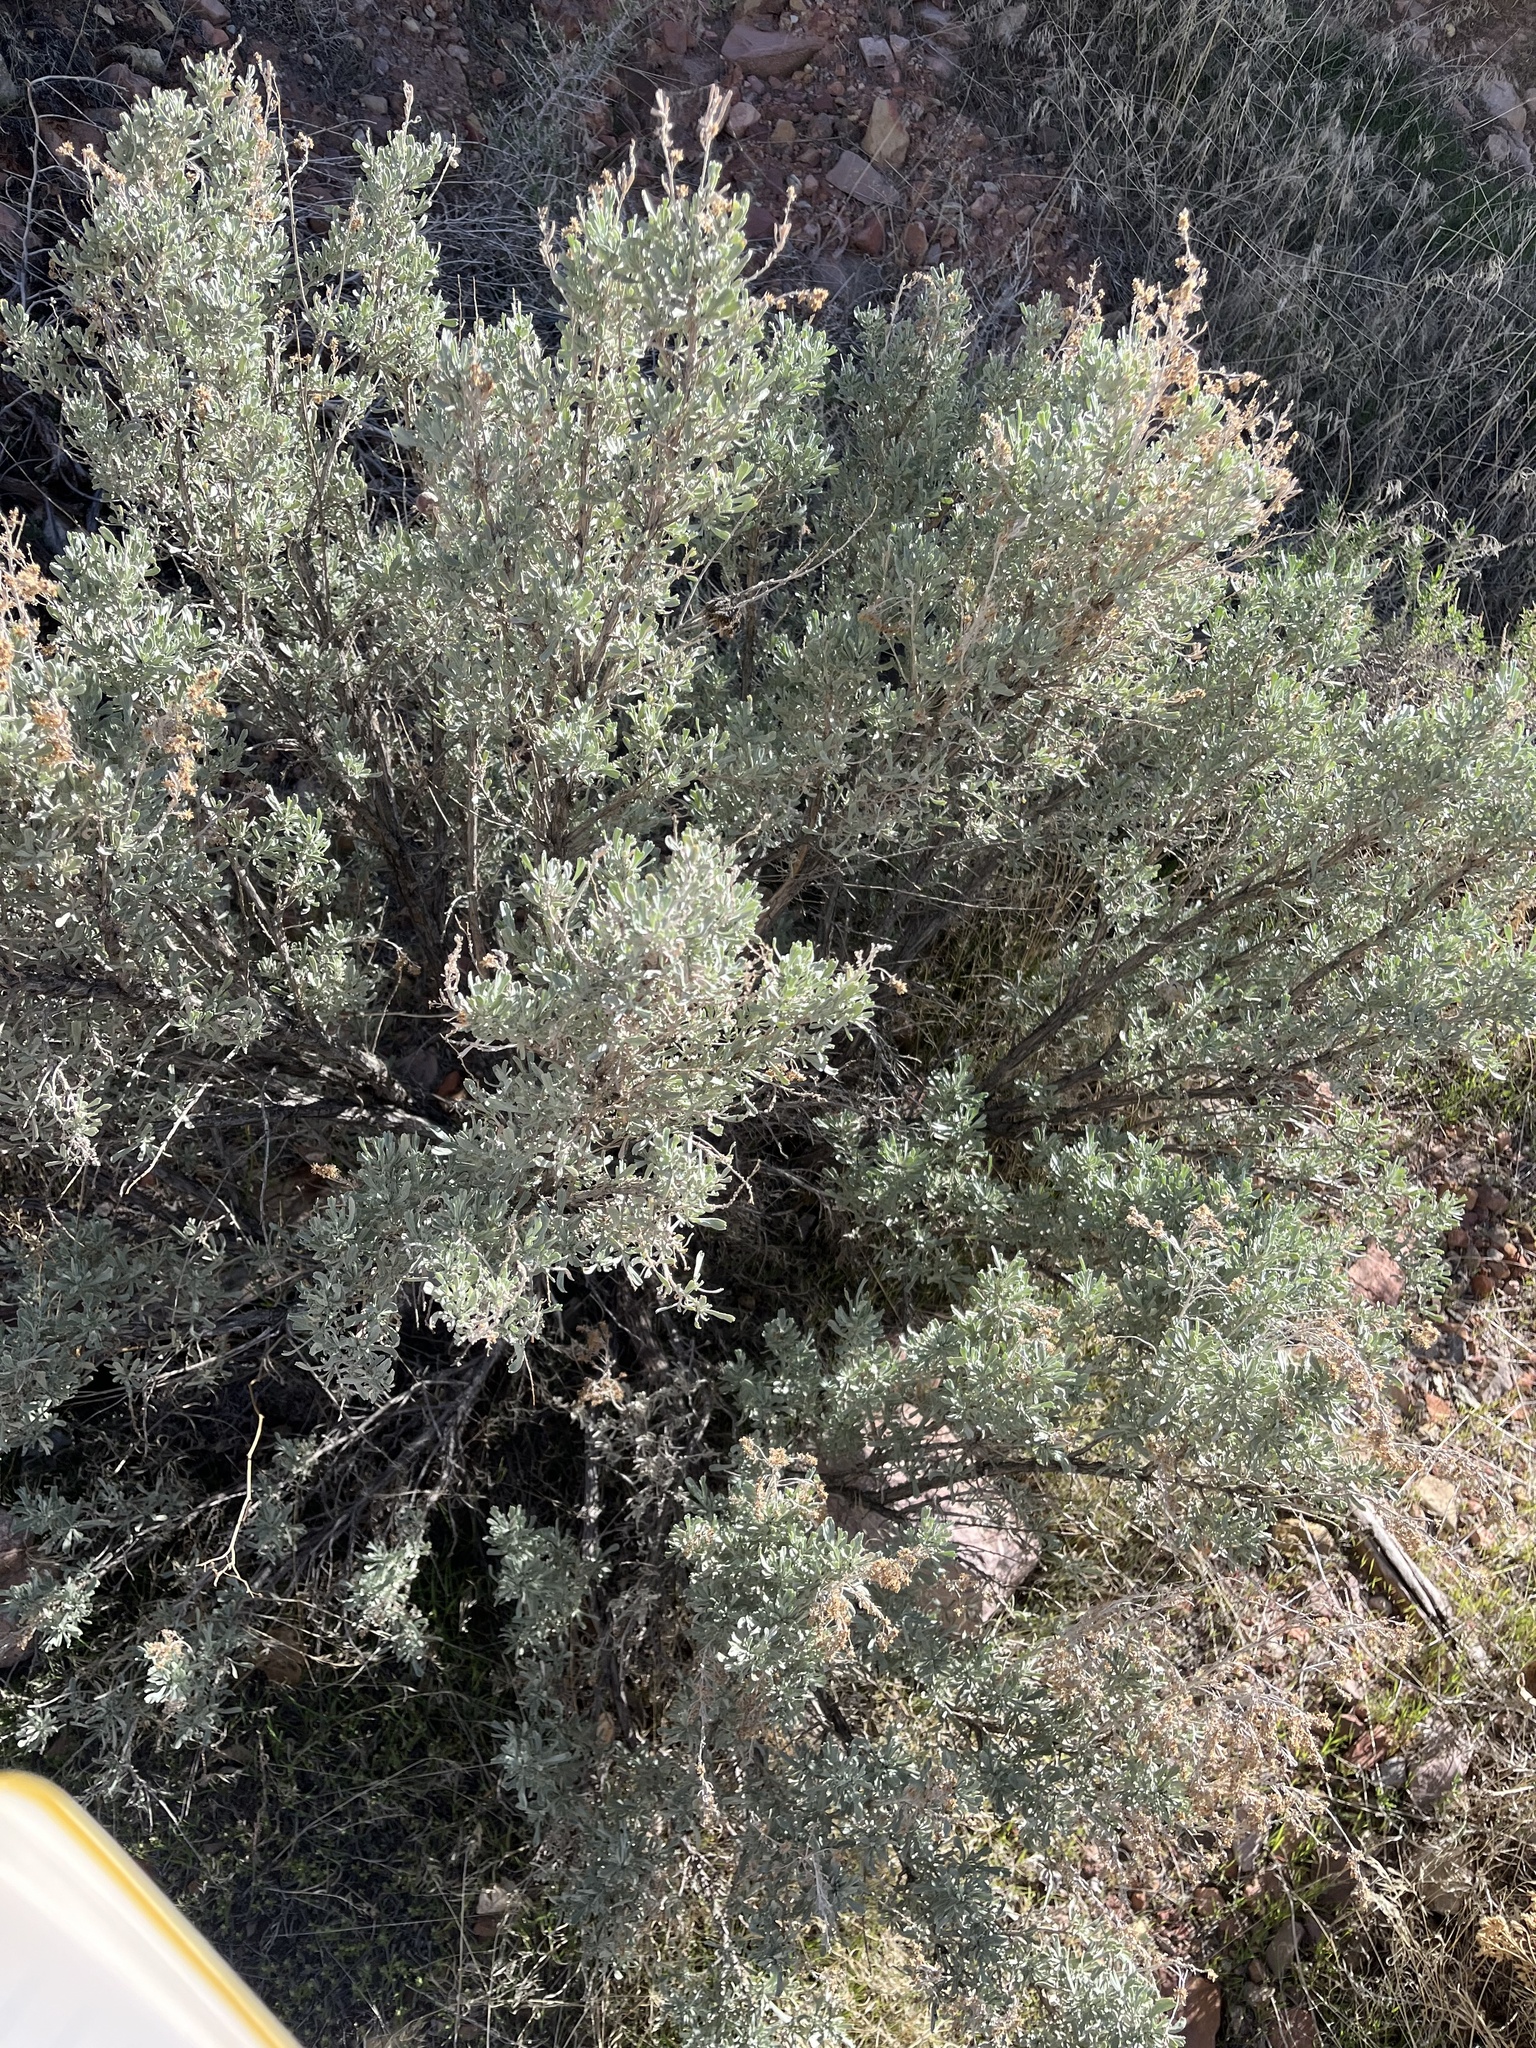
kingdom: Plantae
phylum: Tracheophyta
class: Magnoliopsida
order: Asterales
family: Asteraceae
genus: Artemisia
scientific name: Artemisia tridentata
